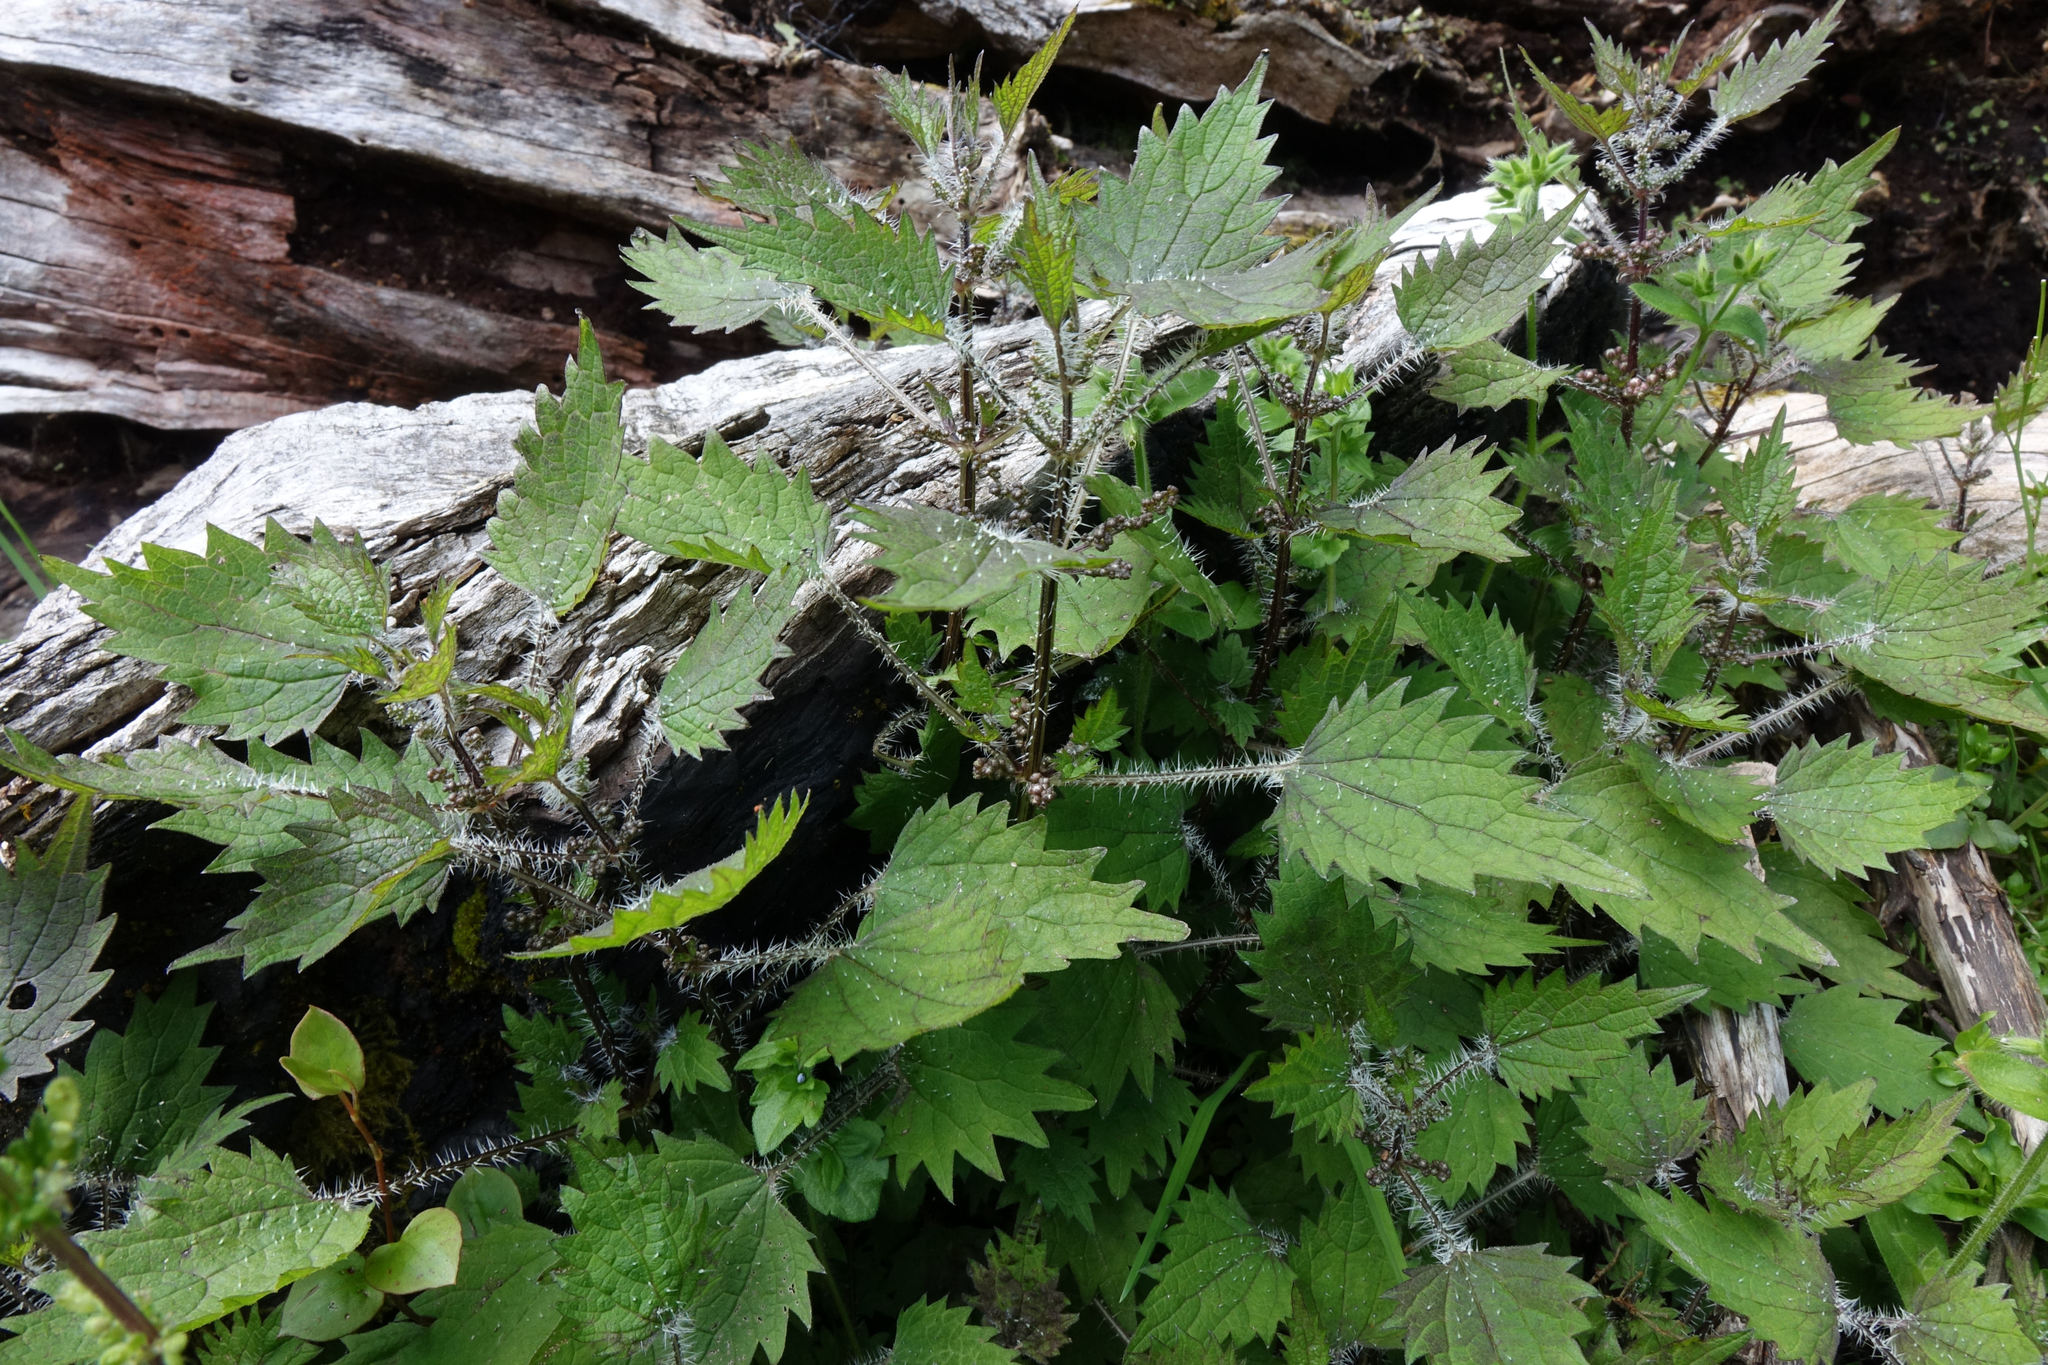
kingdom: Plantae
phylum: Tracheophyta
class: Magnoliopsida
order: Rosales
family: Urticaceae
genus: Urtica
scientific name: Urtica sykesii
